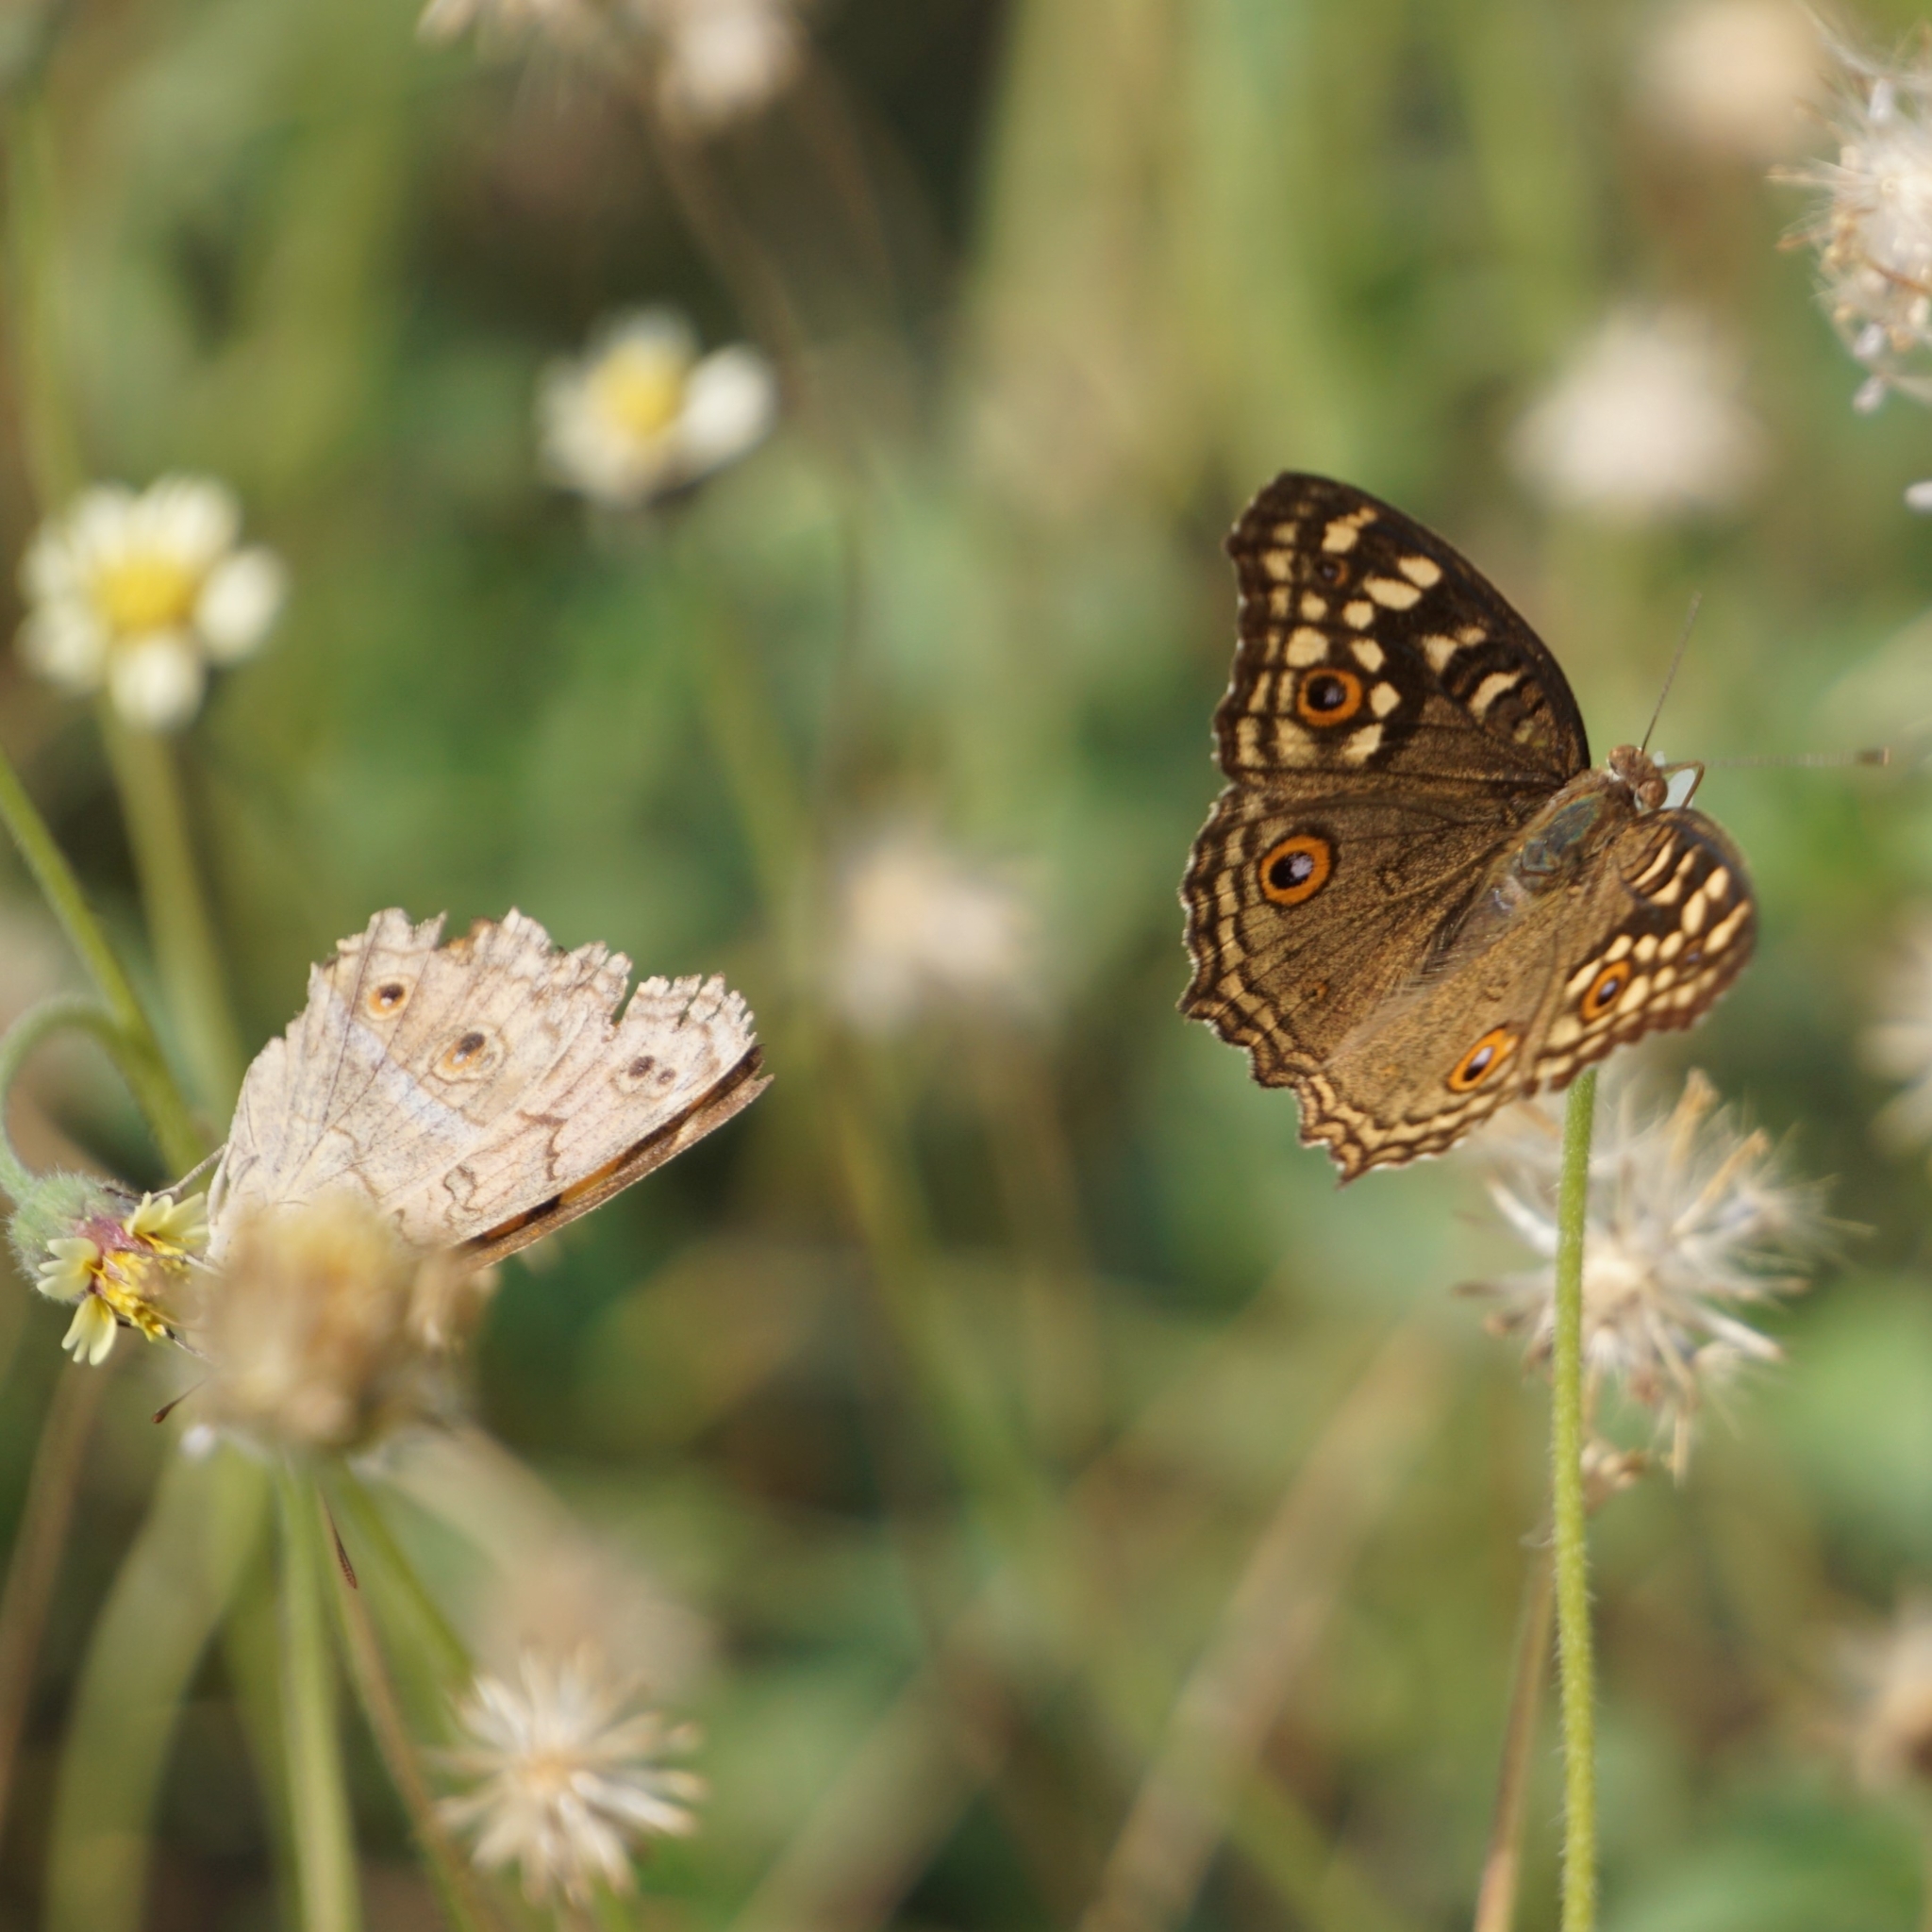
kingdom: Animalia
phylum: Arthropoda
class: Insecta
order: Lepidoptera
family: Nymphalidae
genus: Junonia
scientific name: Junonia lemonias
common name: Lemon pansy
